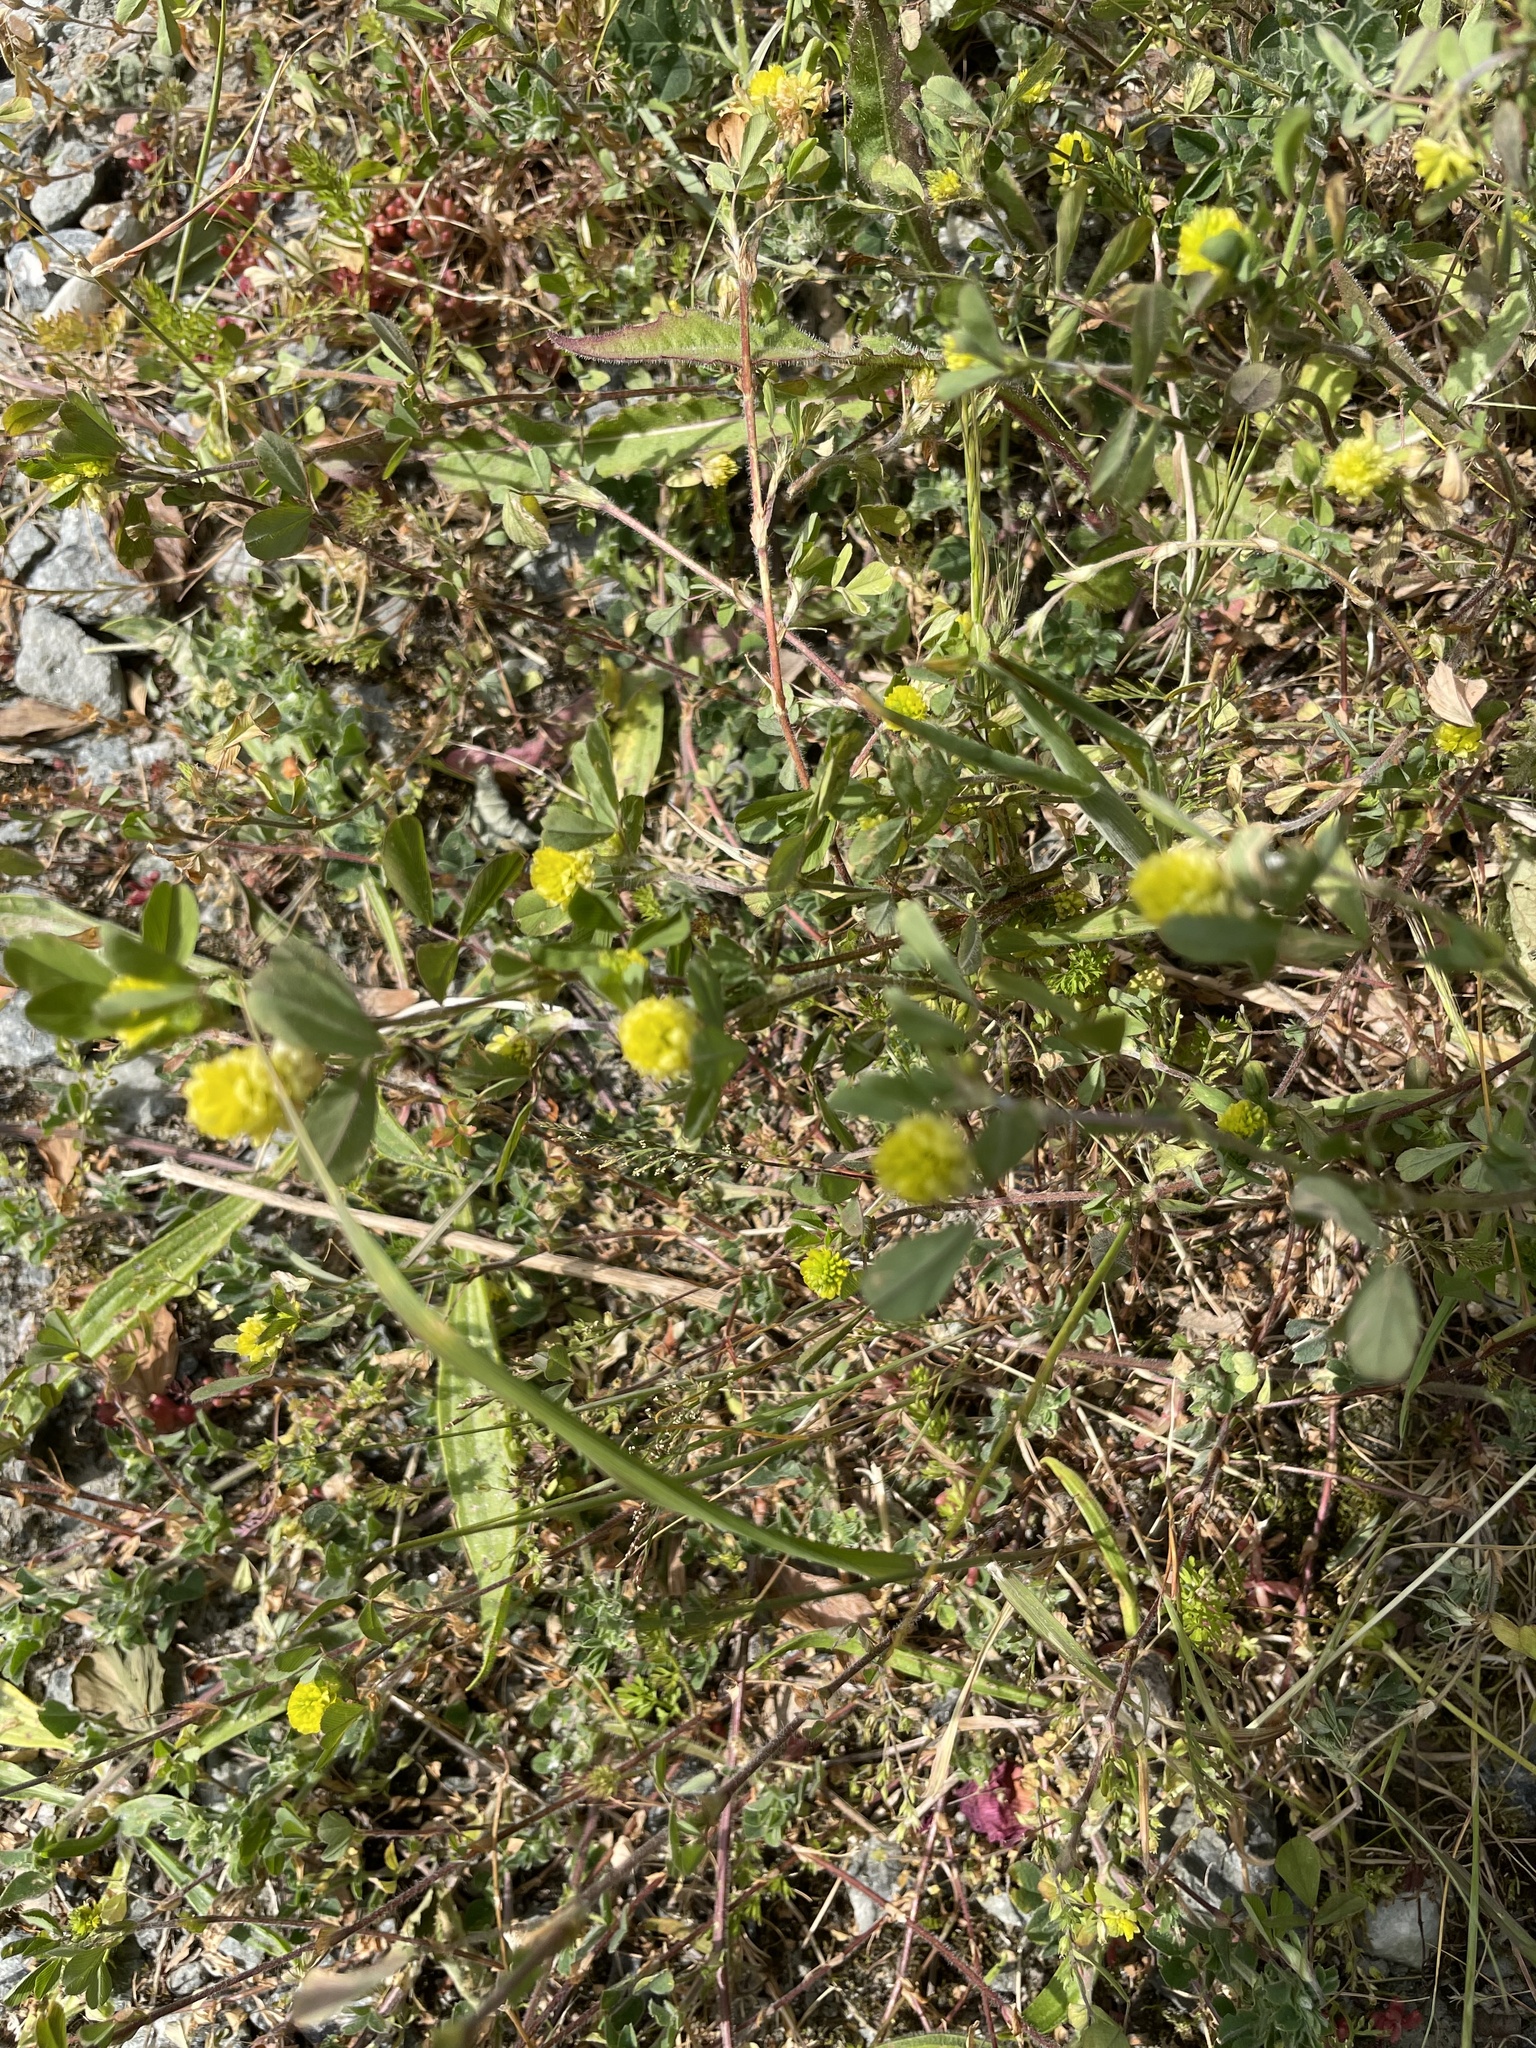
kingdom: Plantae
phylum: Tracheophyta
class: Magnoliopsida
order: Fabales
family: Fabaceae
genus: Trifolium
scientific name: Trifolium campestre
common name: Field clover
